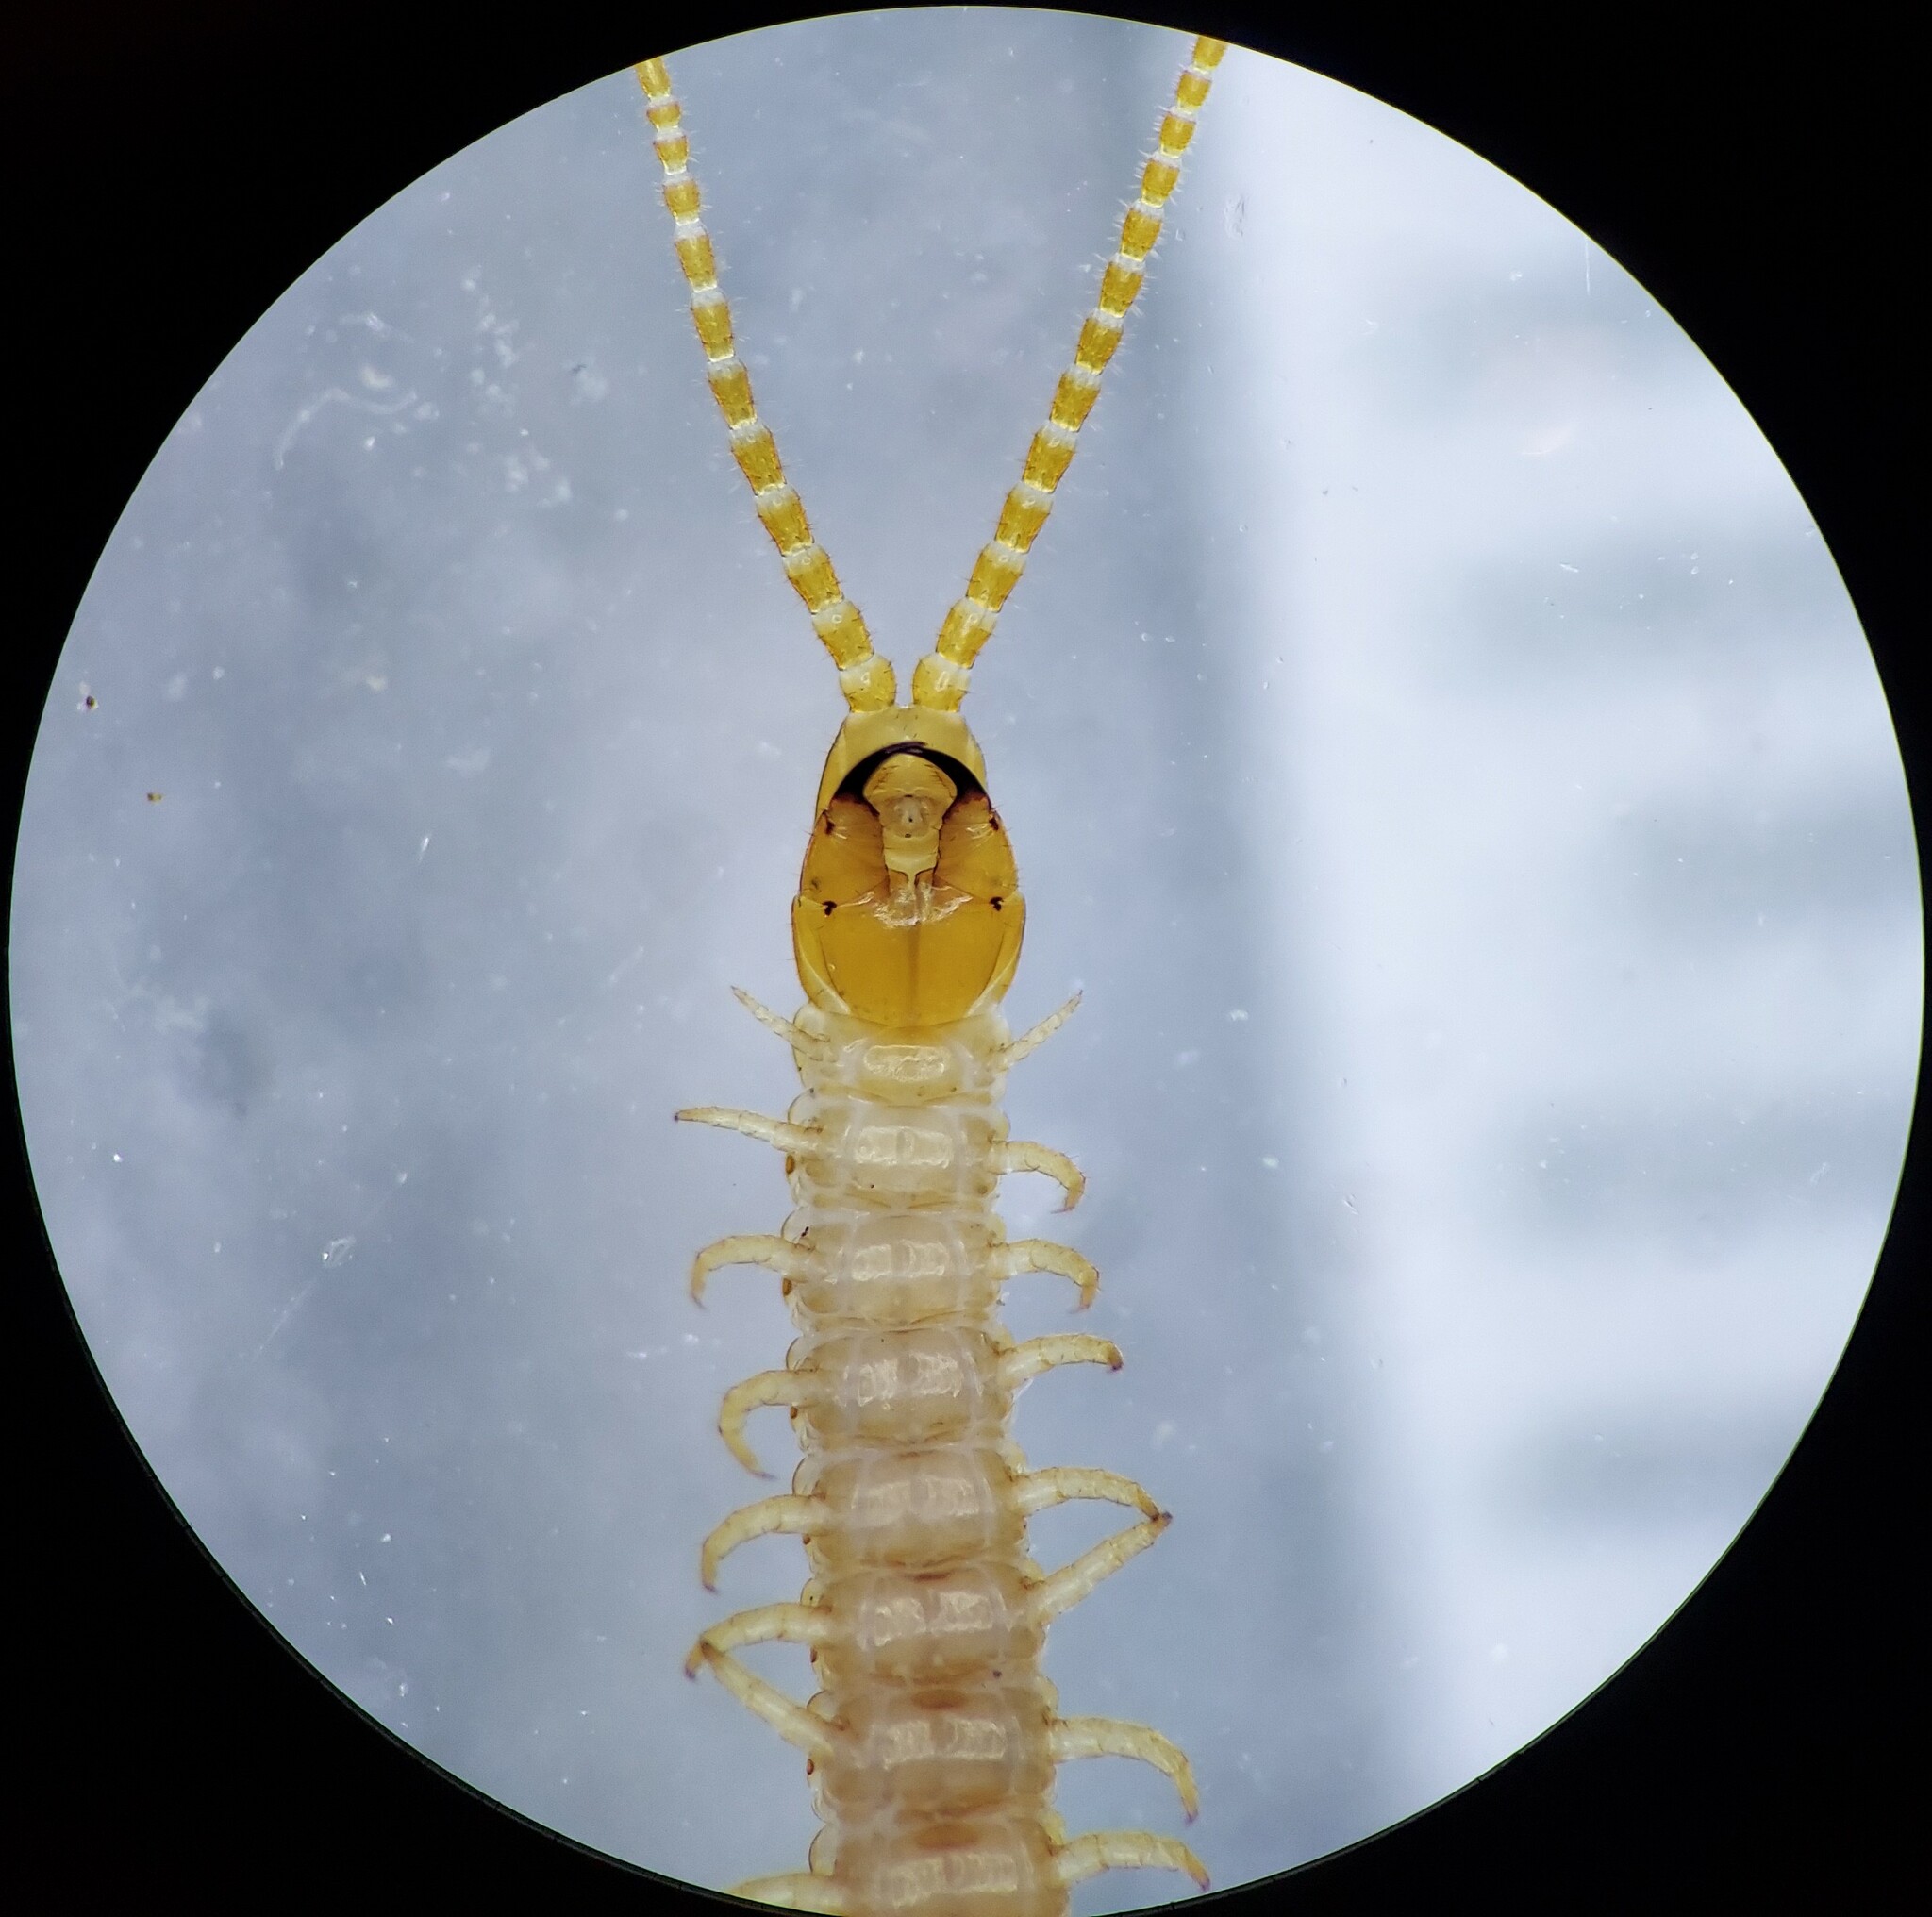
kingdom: Animalia
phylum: Arthropoda
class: Chilopoda
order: Geophilomorpha
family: Geophilidae
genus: Geophilus
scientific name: Geophilus virginiensis
